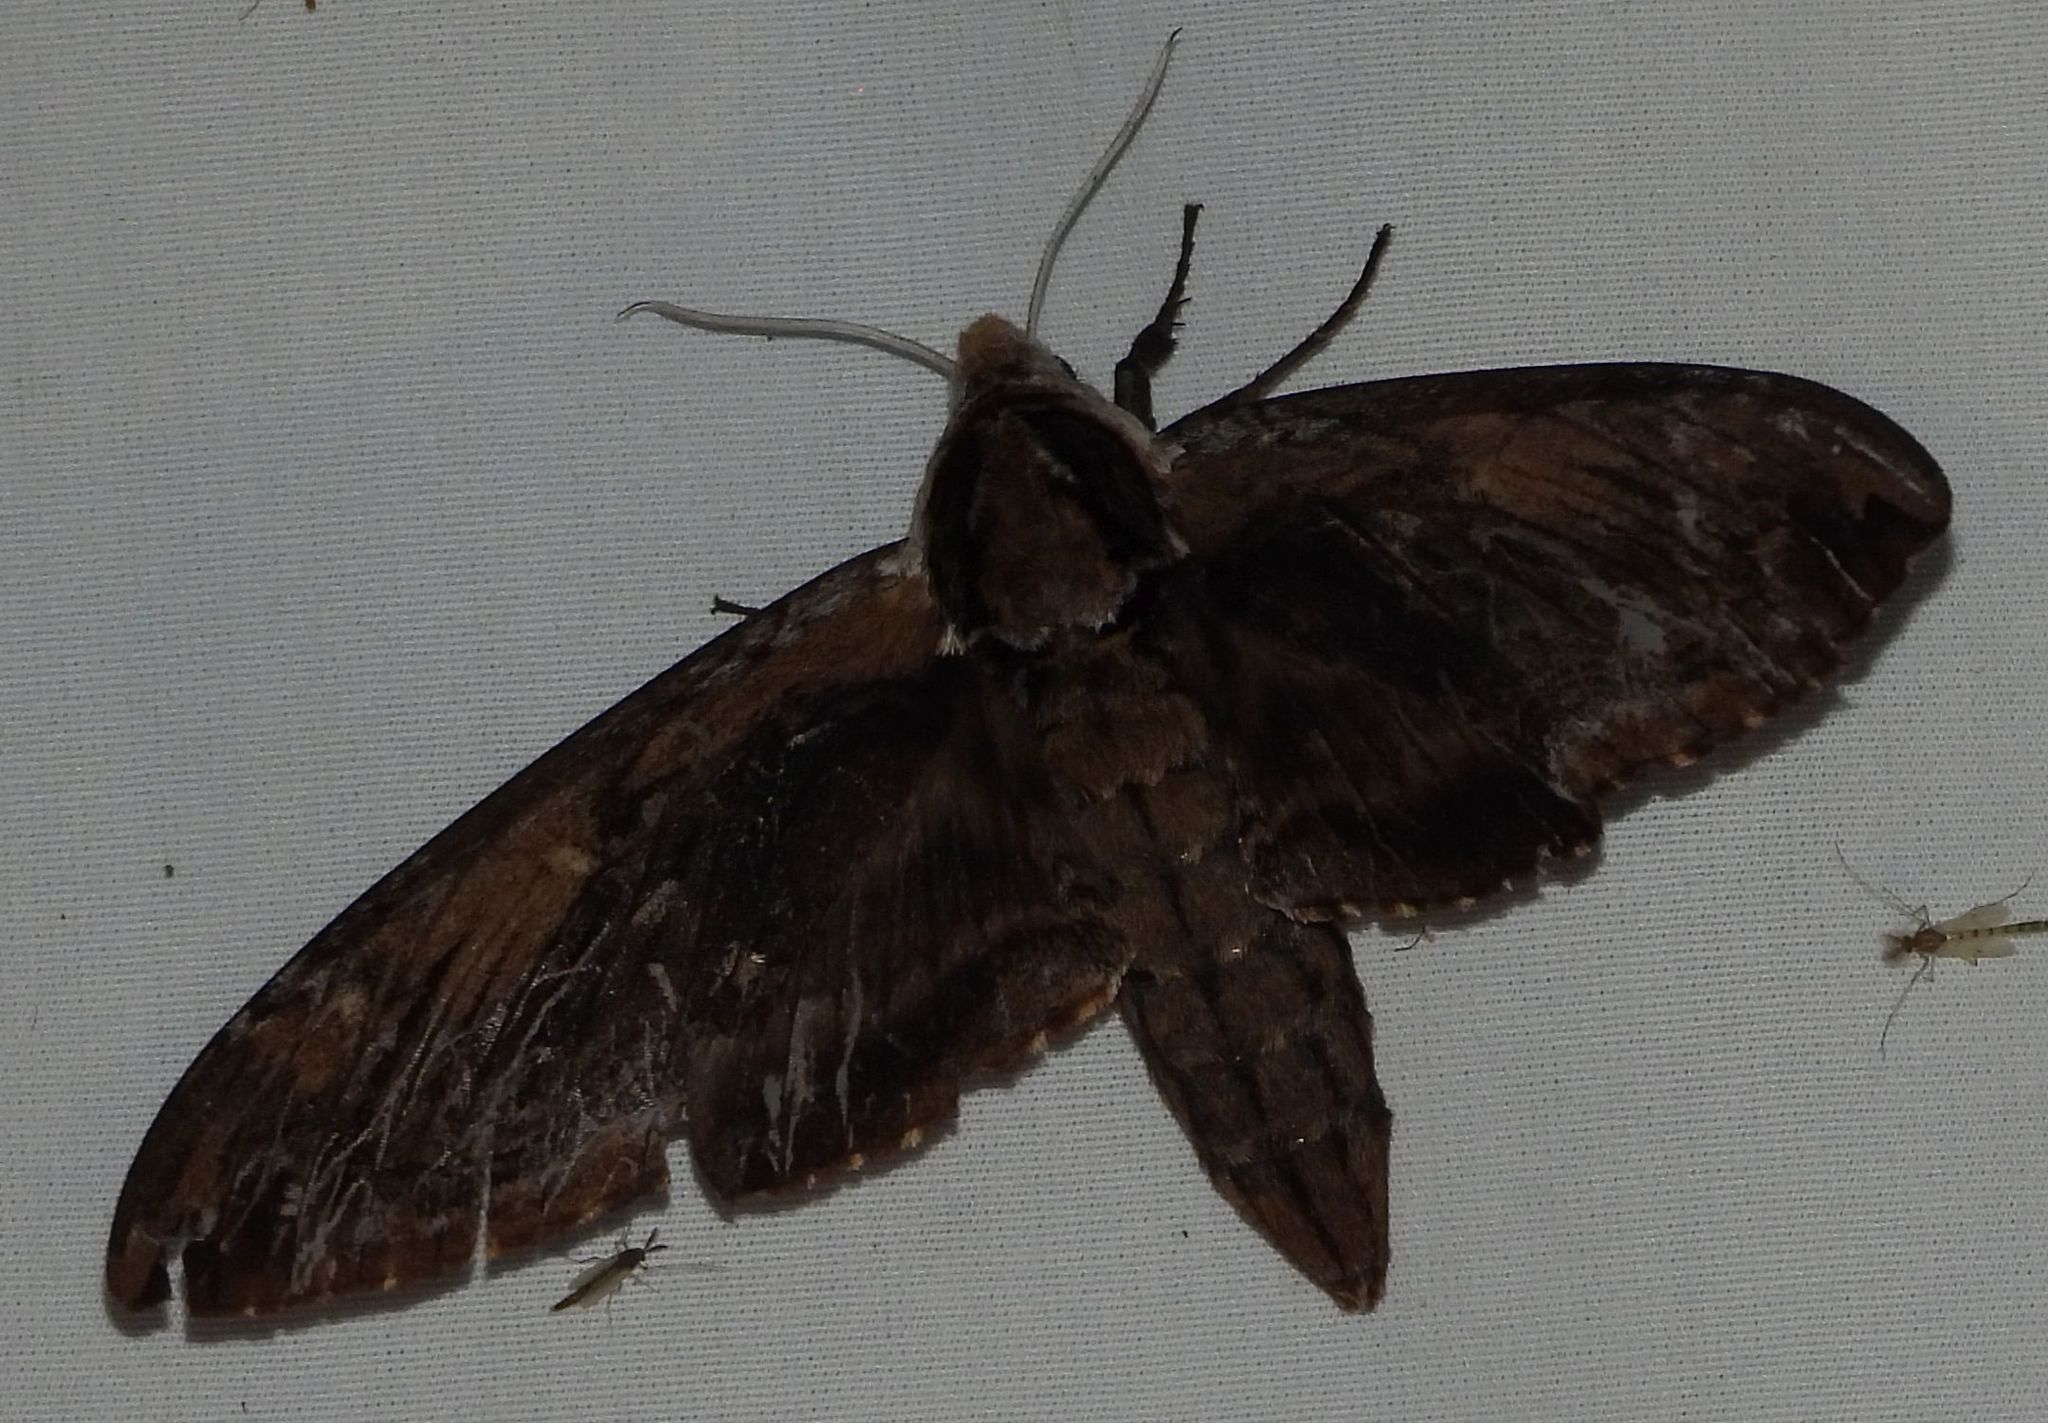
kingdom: Animalia
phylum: Arthropoda
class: Insecta
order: Lepidoptera
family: Sphingidae
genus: Ceratomia
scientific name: Ceratomia amyntor
